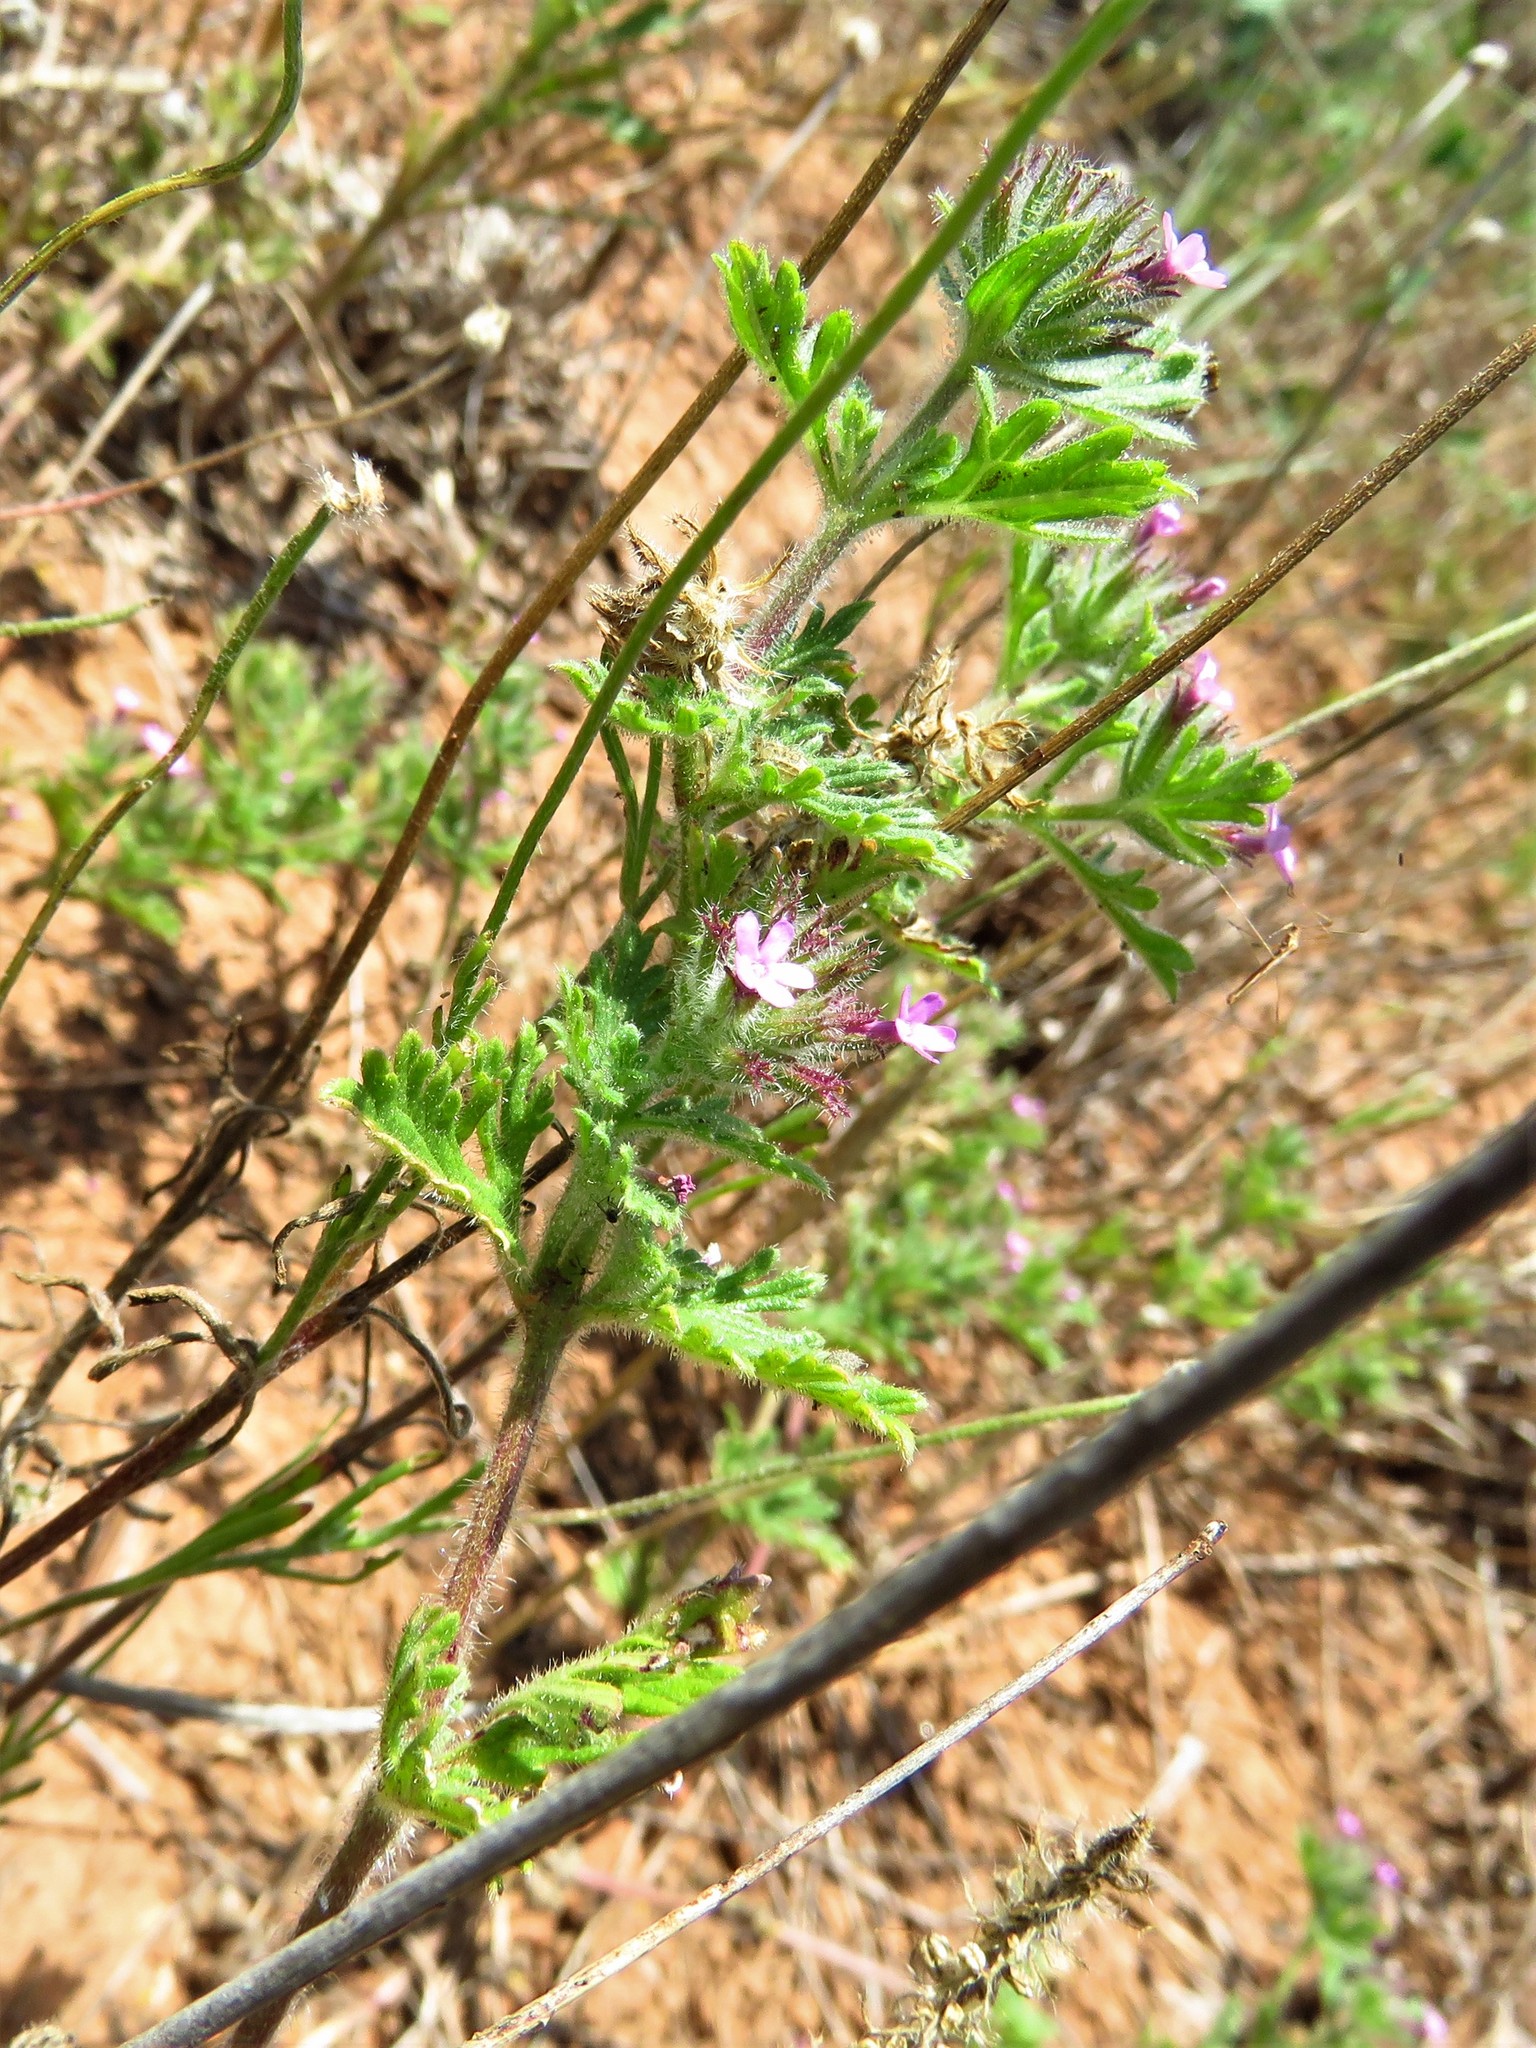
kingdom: Plantae
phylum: Tracheophyta
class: Magnoliopsida
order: Lamiales
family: Verbenaceae
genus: Verbena
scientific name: Verbena pumila
